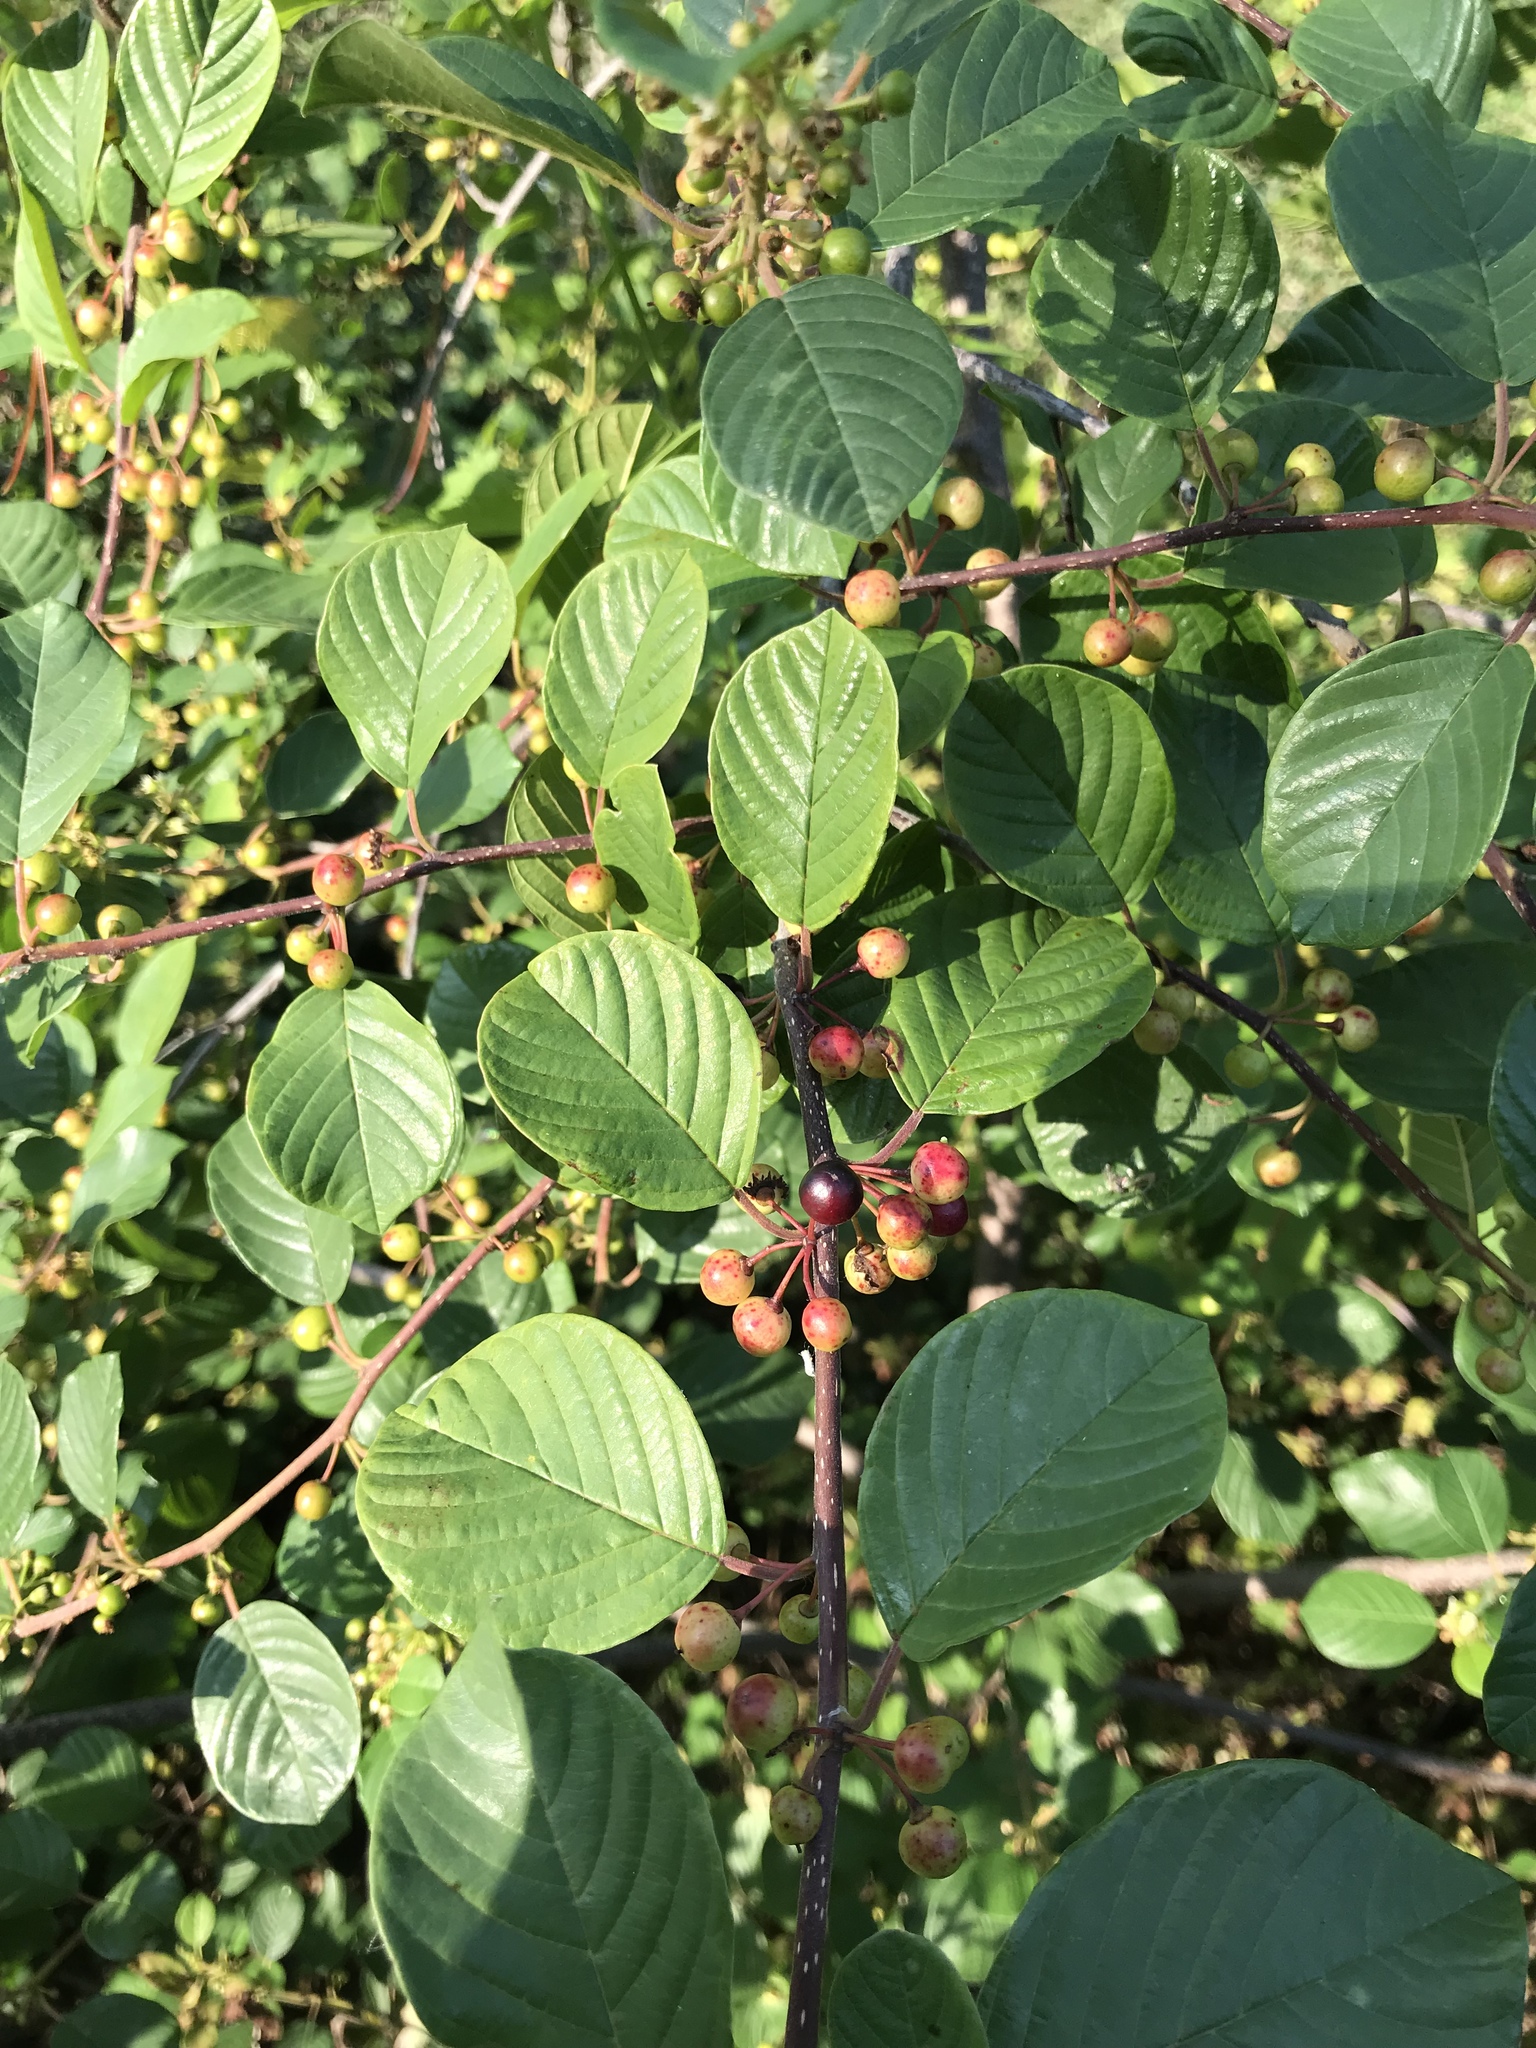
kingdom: Plantae
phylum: Tracheophyta
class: Magnoliopsida
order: Rosales
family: Rhamnaceae
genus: Frangula
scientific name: Frangula alnus
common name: Alder buckthorn
